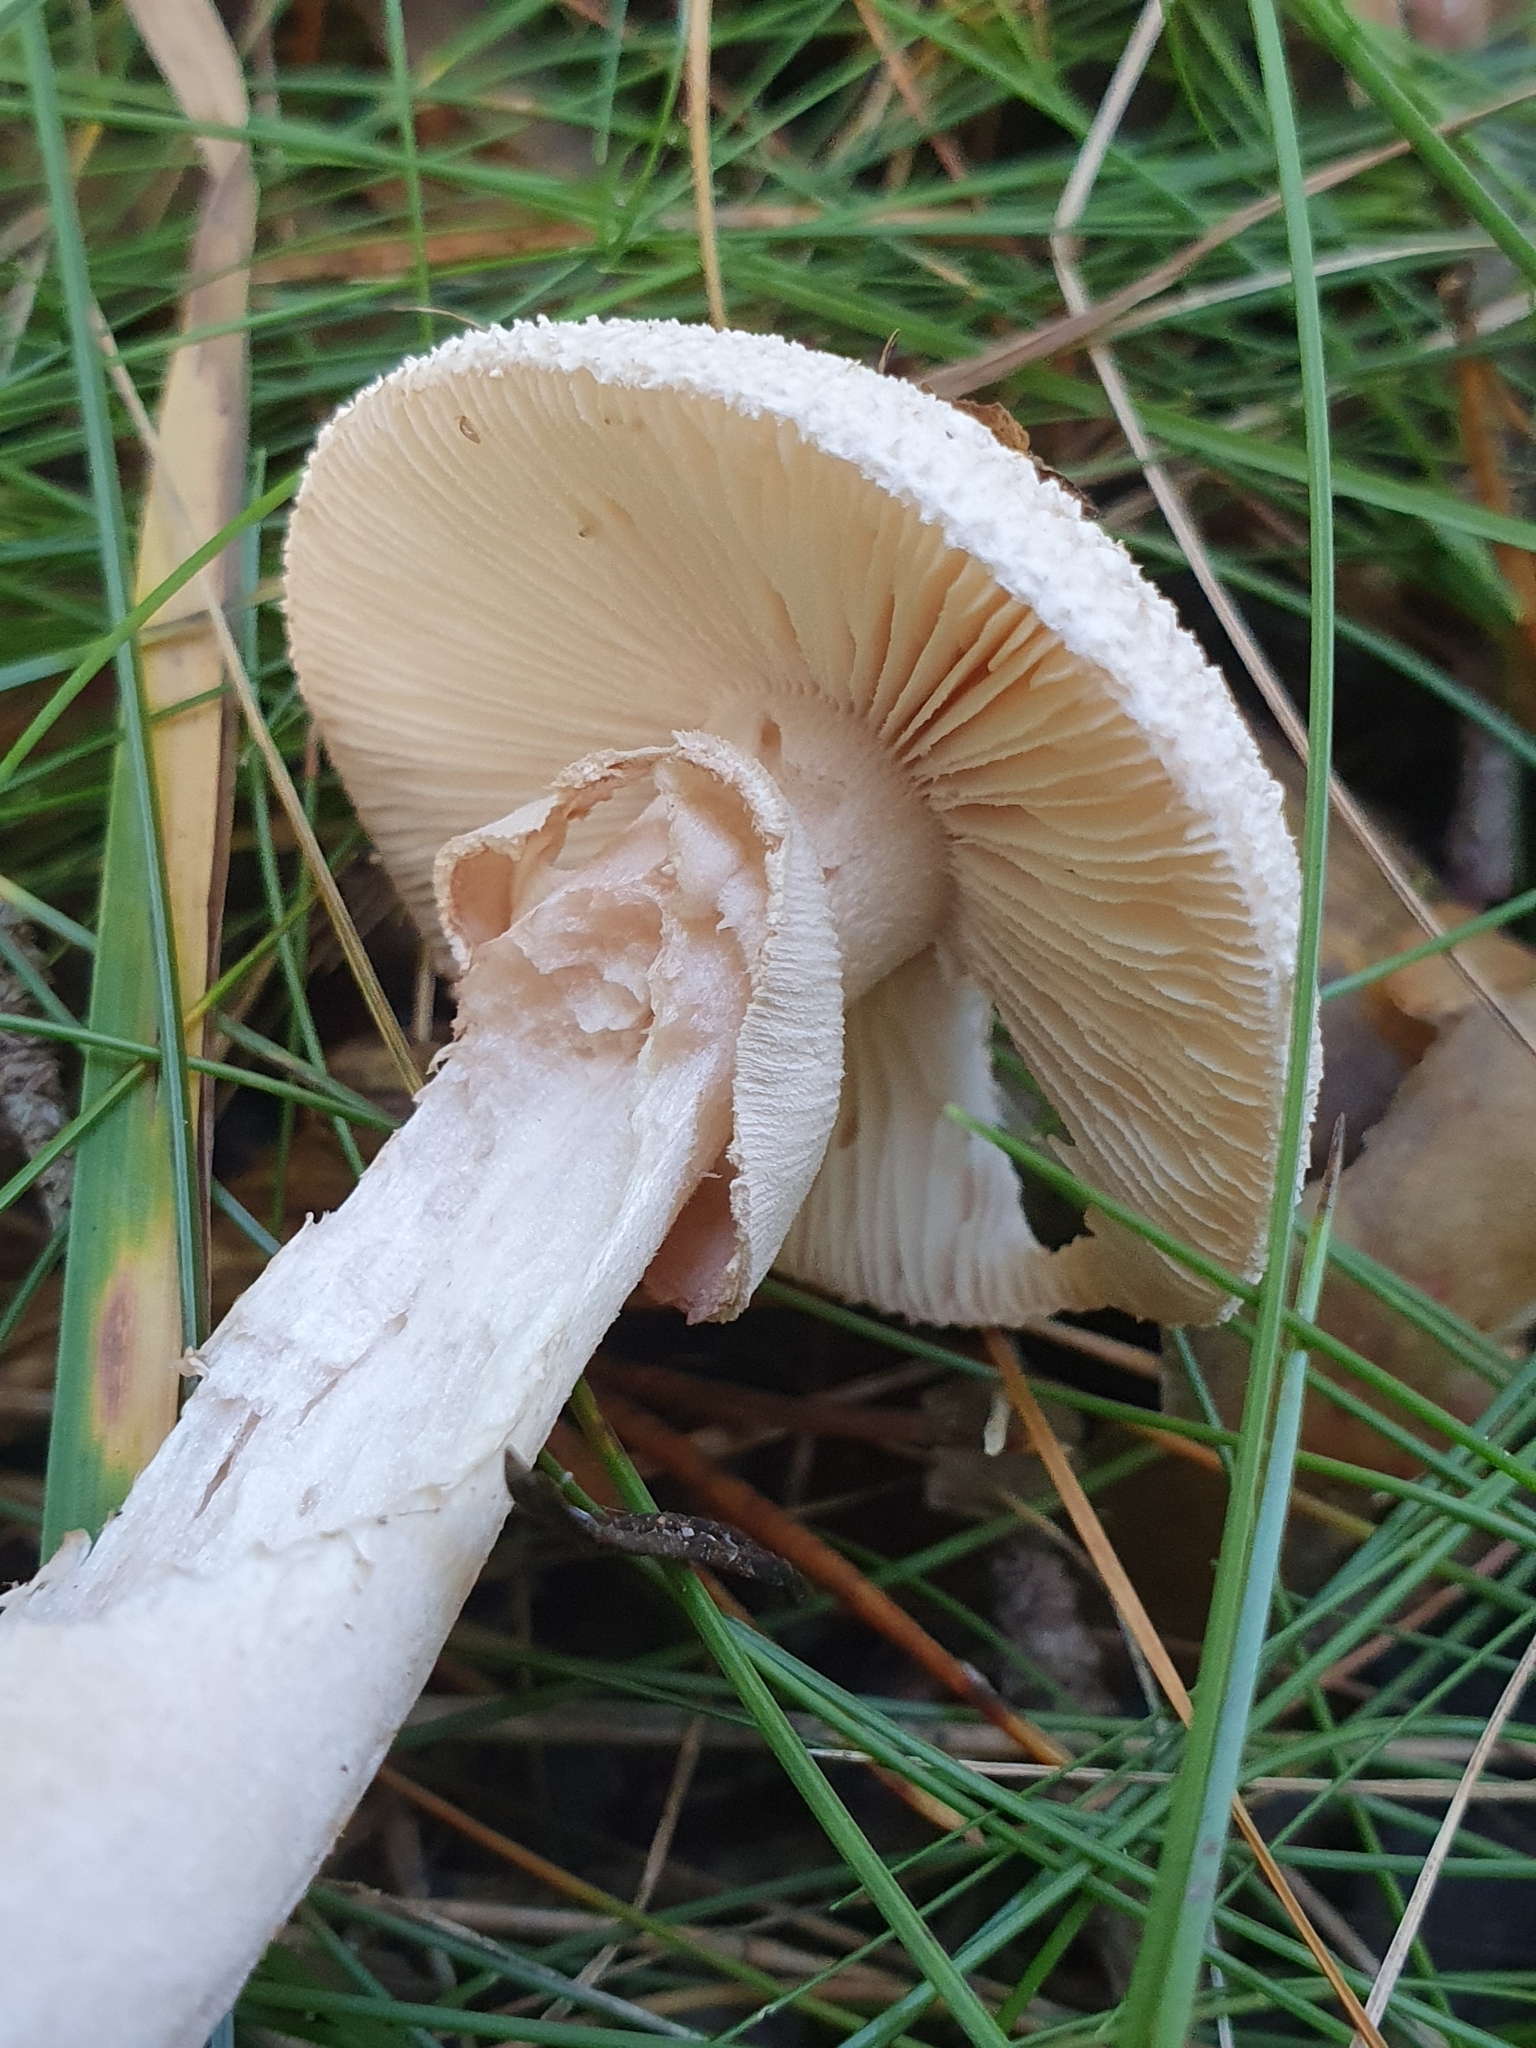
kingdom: Fungi
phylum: Basidiomycota
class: Agaricomycetes
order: Agaricales
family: Amanitaceae
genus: Amanita
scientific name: Amanita rubescens
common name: Blusher
